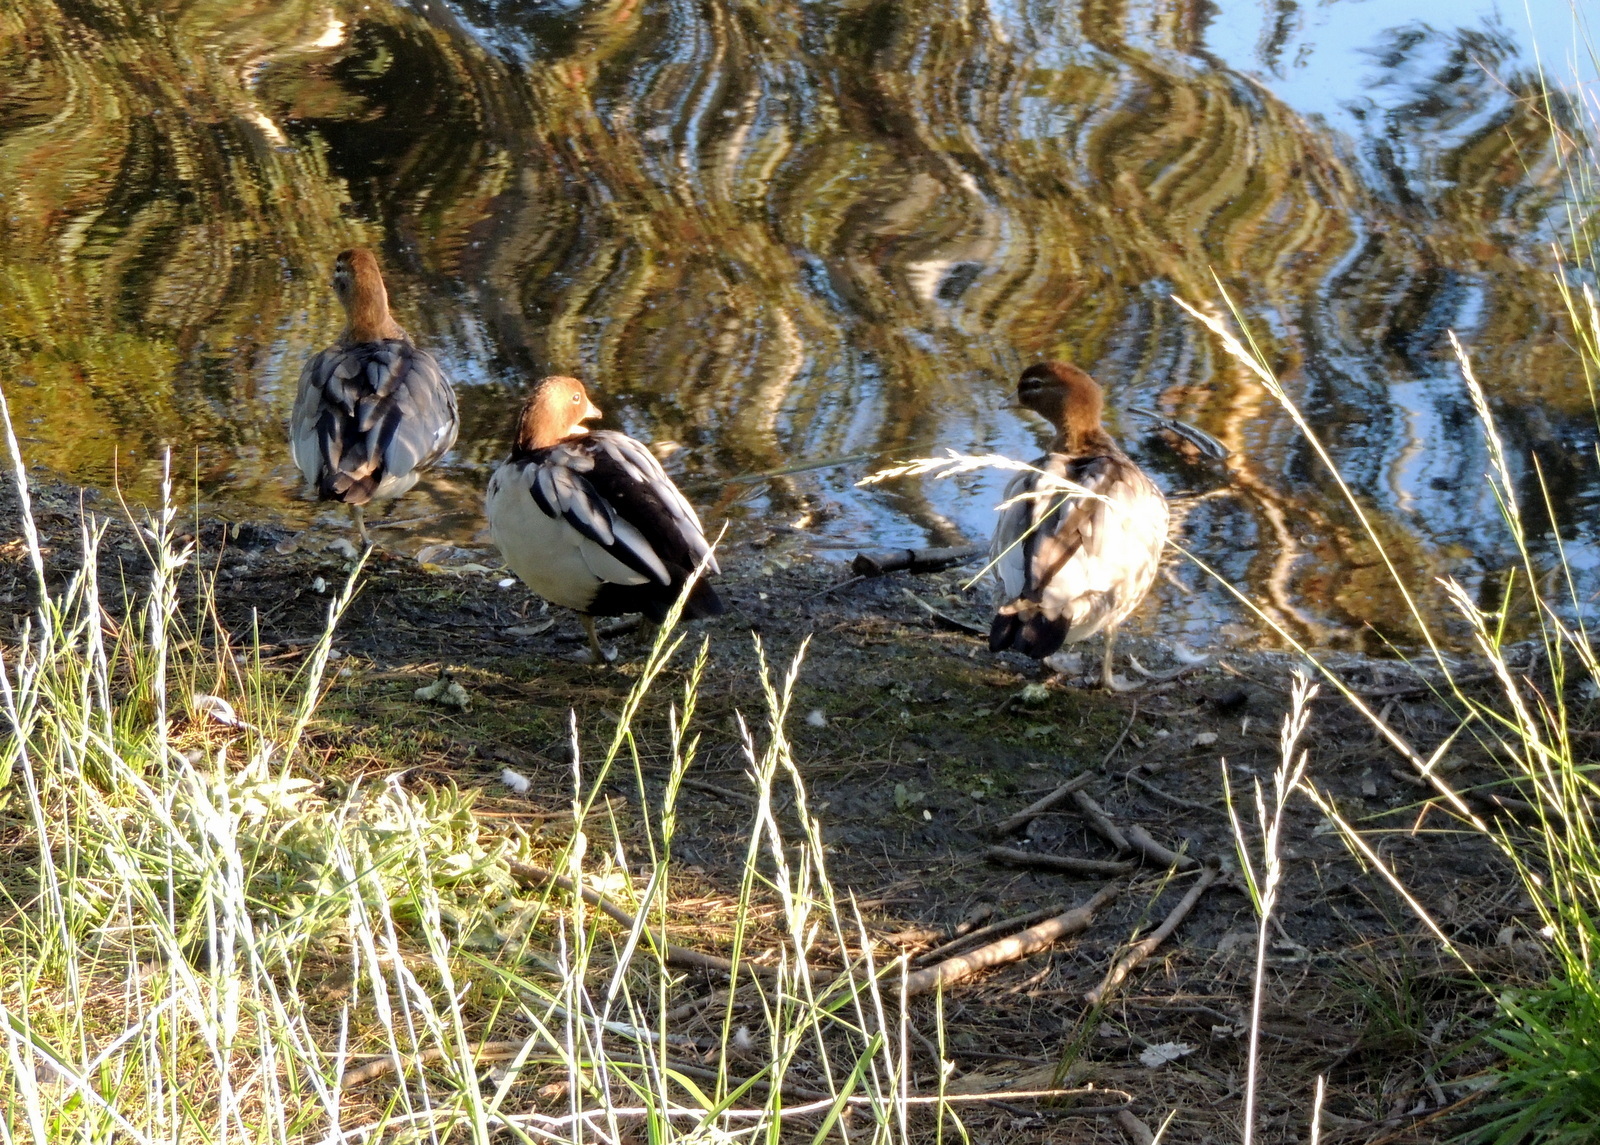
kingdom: Animalia
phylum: Chordata
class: Aves
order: Anseriformes
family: Anatidae
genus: Chenonetta
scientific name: Chenonetta jubata
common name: Maned duck
